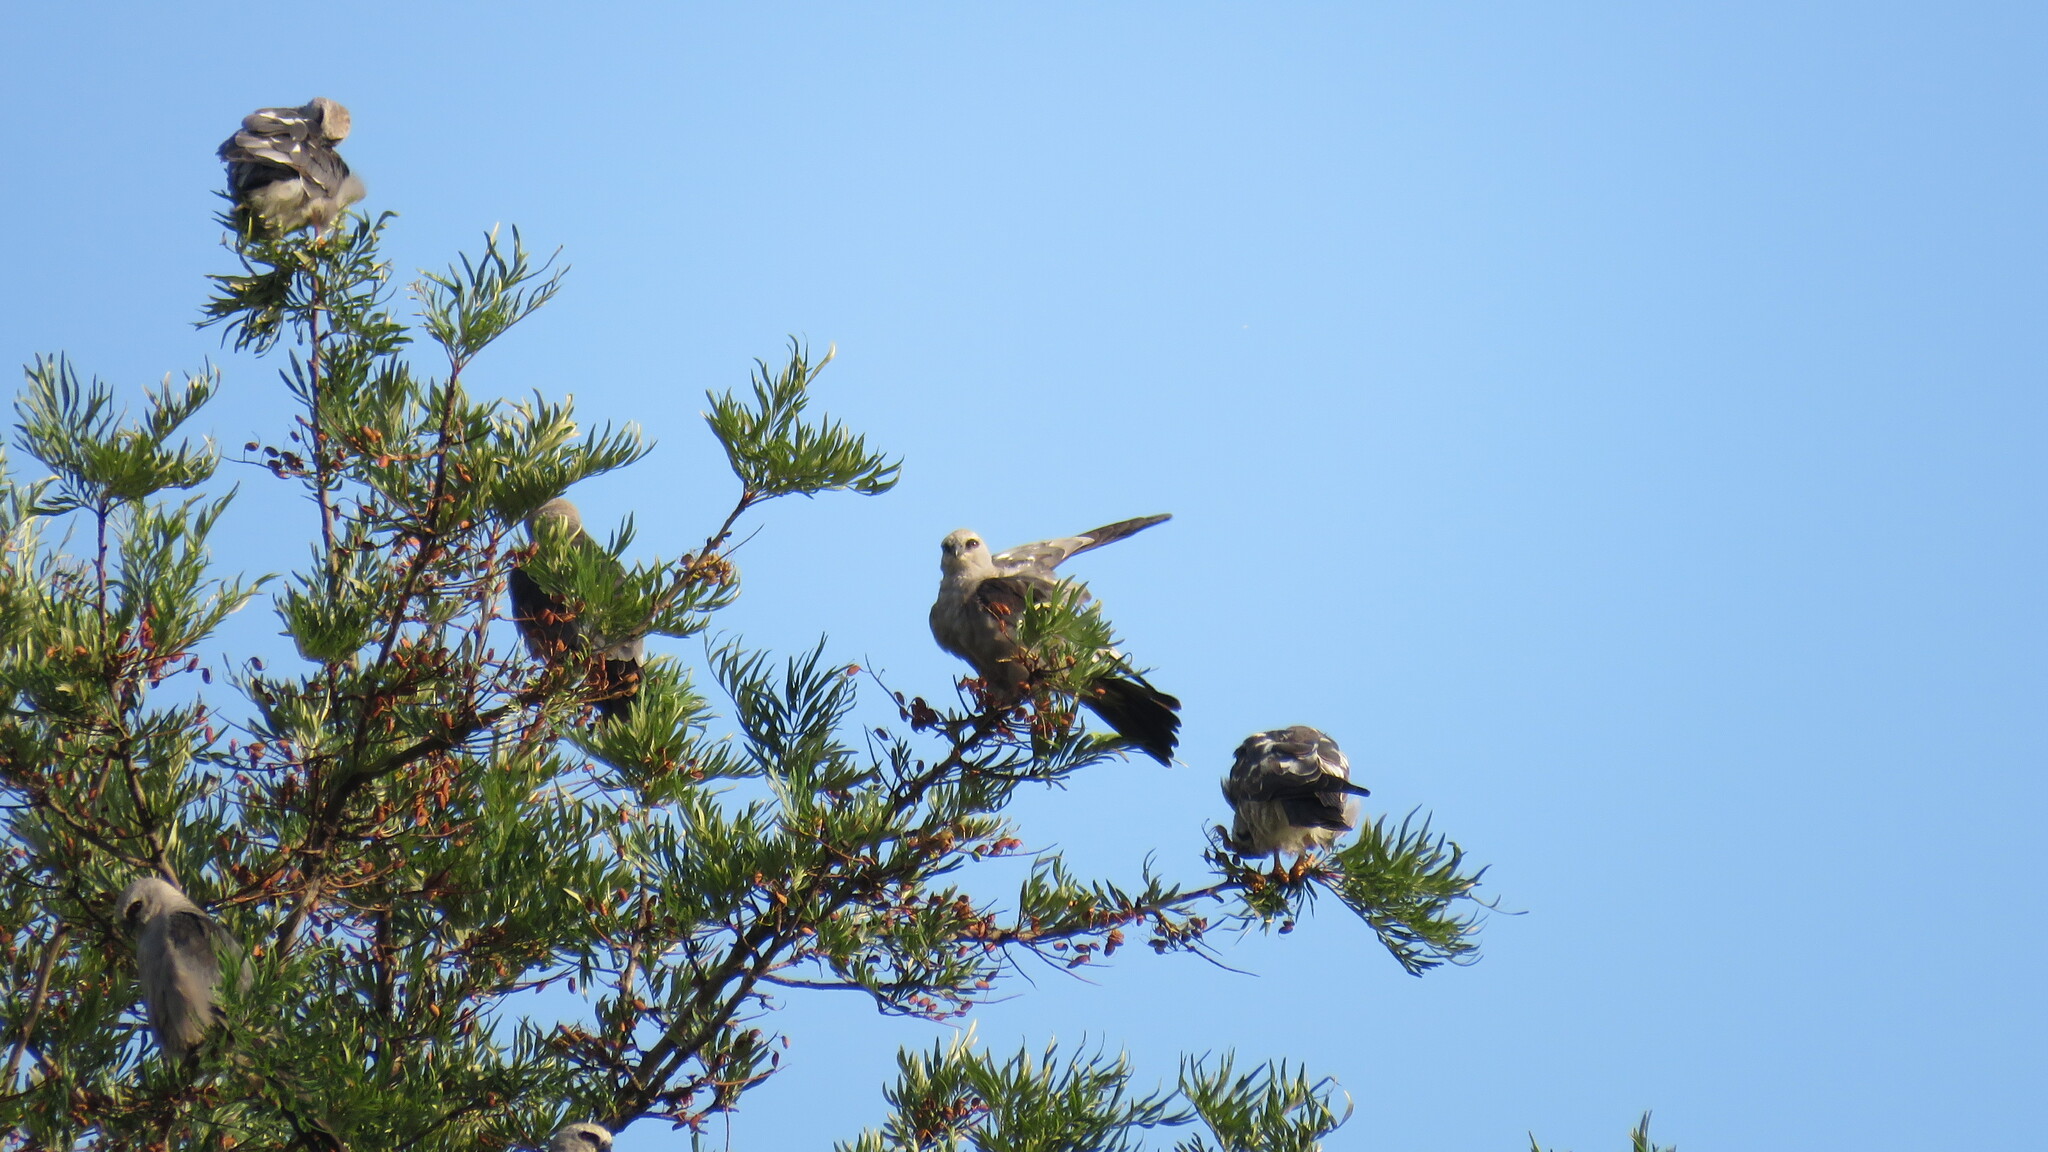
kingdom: Animalia
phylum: Chordata
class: Aves
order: Accipitriformes
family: Accipitridae
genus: Ictinia
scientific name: Ictinia mississippiensis
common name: Mississippi kite
